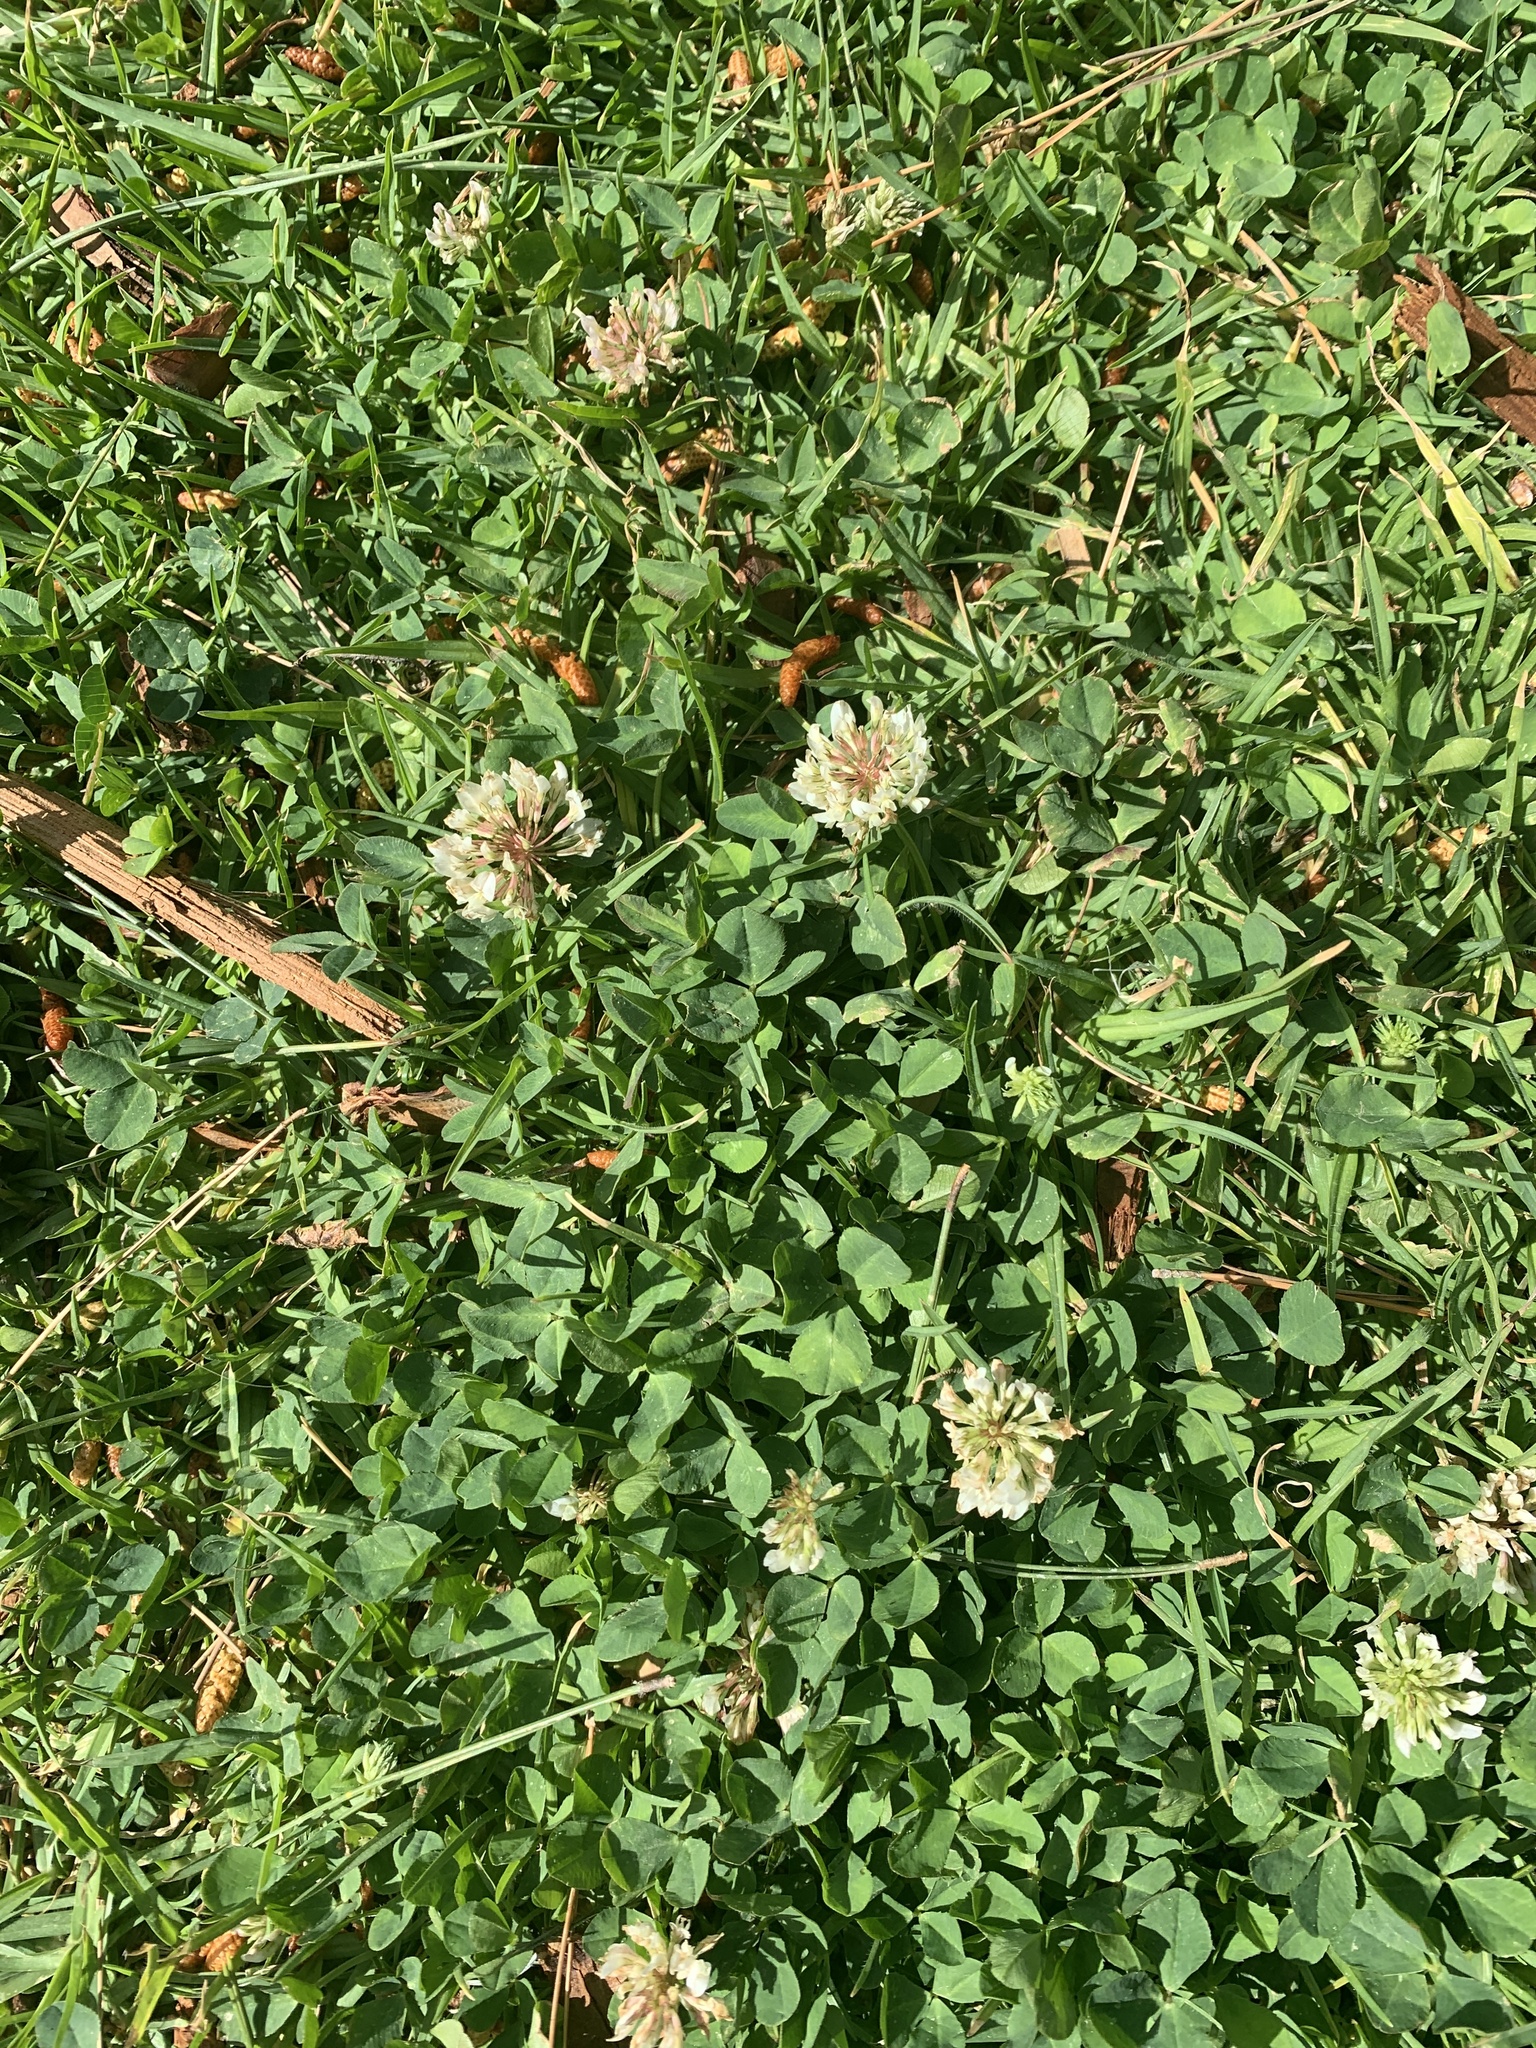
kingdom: Plantae
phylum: Tracheophyta
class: Magnoliopsida
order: Fabales
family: Fabaceae
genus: Trifolium
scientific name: Trifolium repens
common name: White clover
